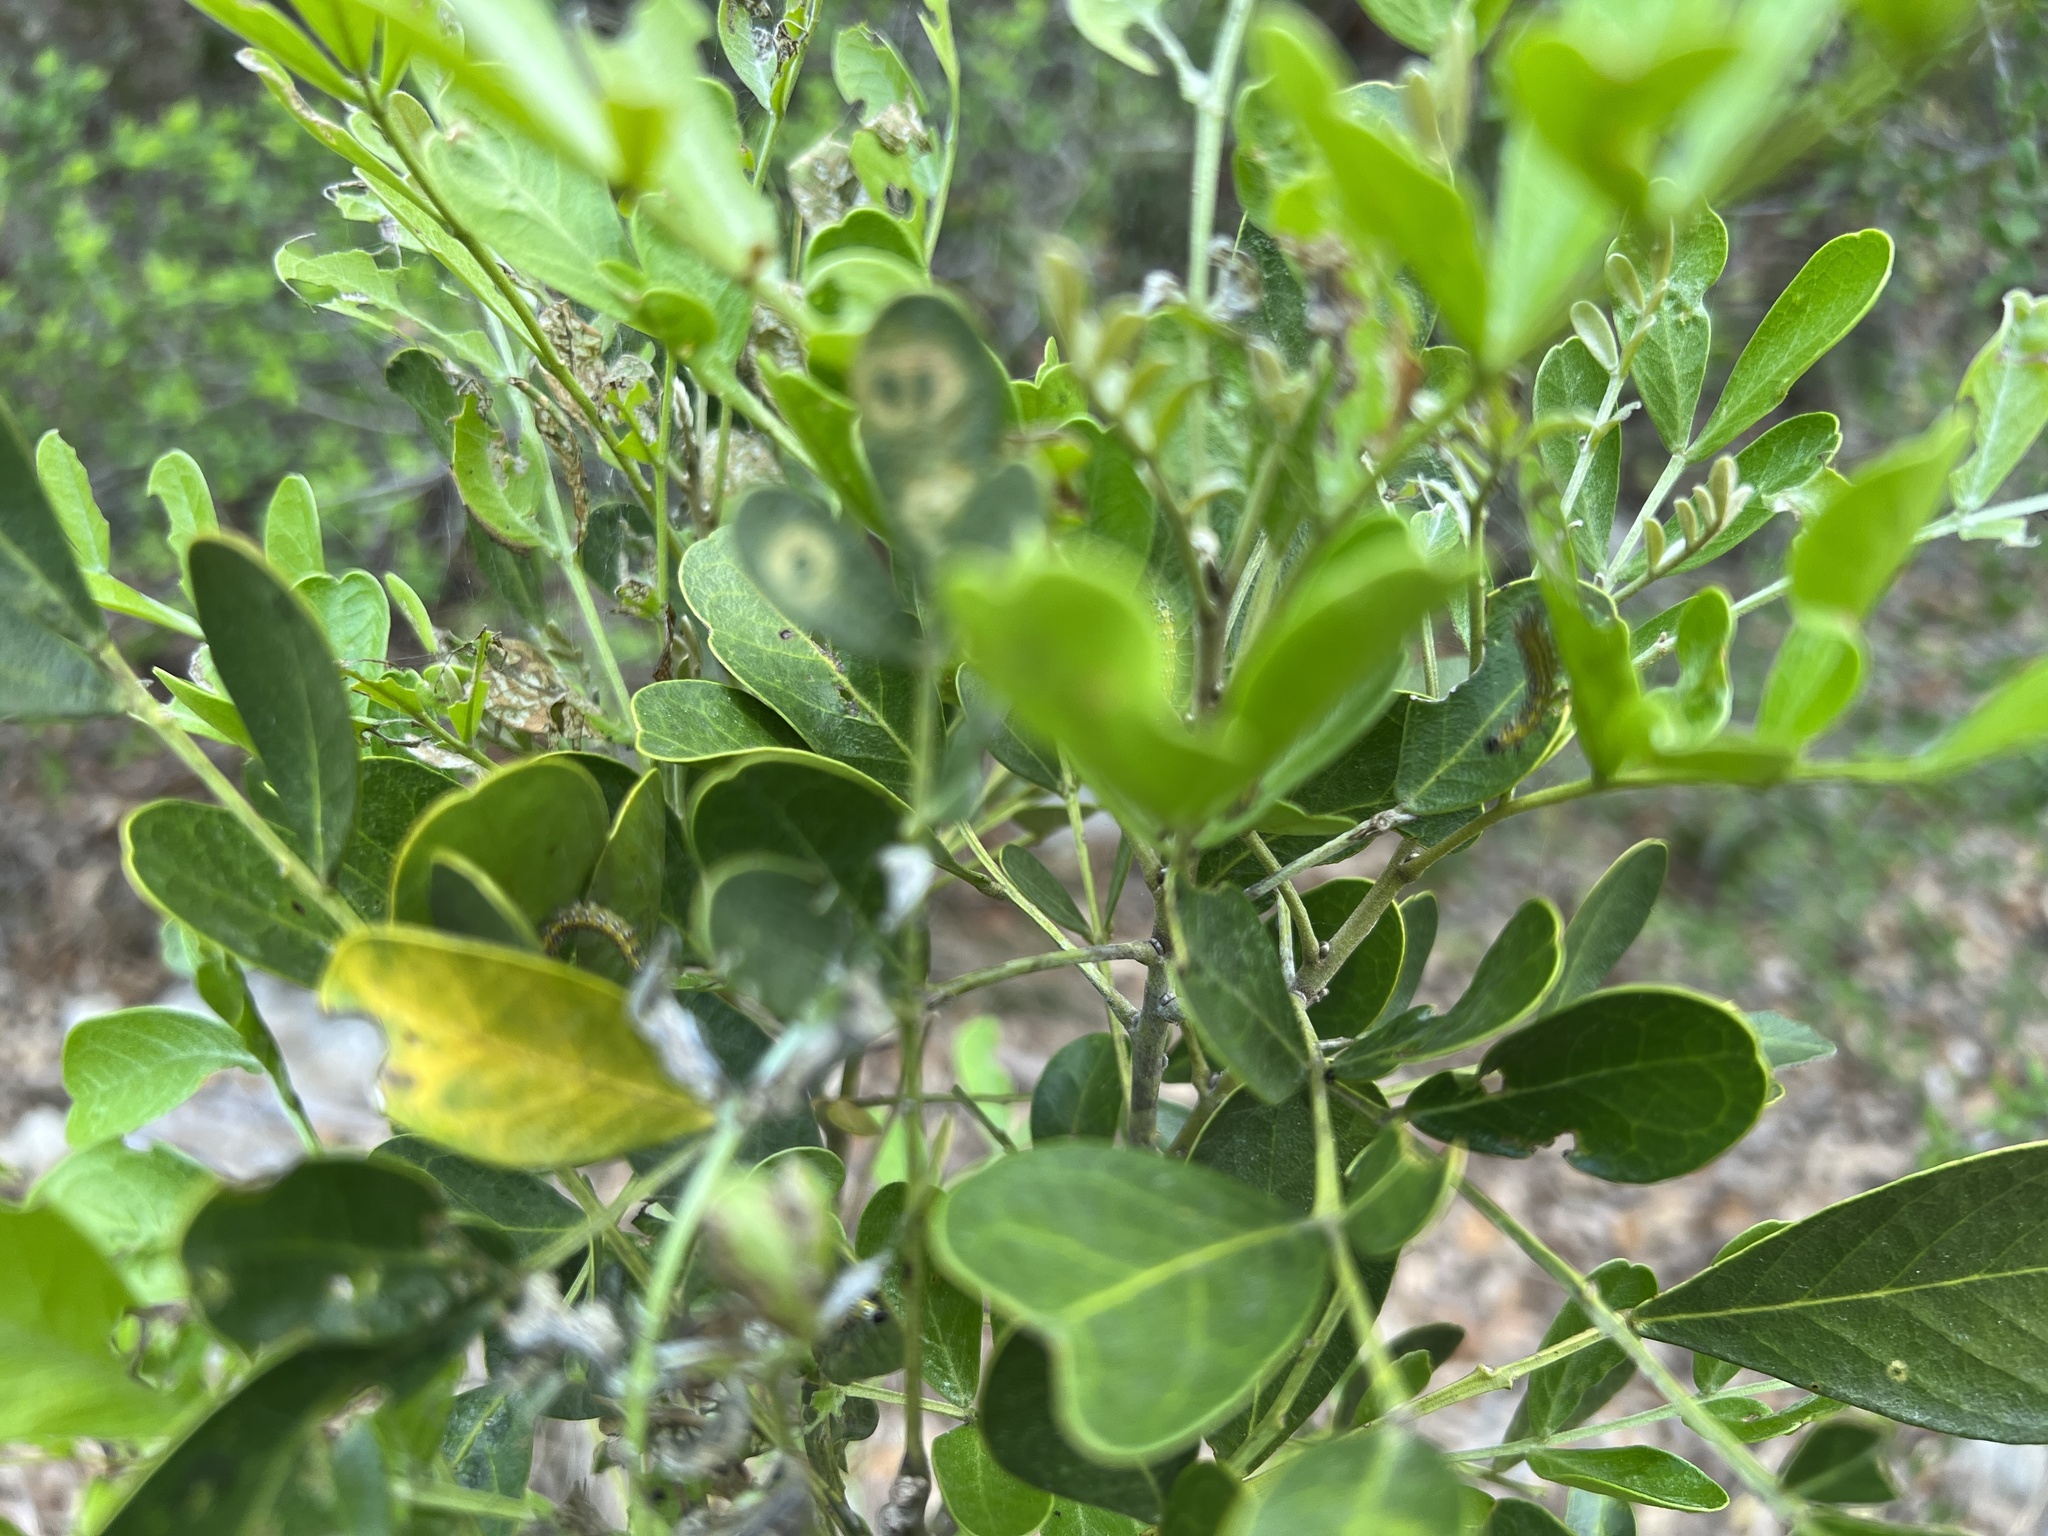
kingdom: Animalia
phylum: Arthropoda
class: Insecta
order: Lepidoptera
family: Crambidae
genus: Uresiphita
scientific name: Uresiphita reversalis
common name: Genista broom moth
